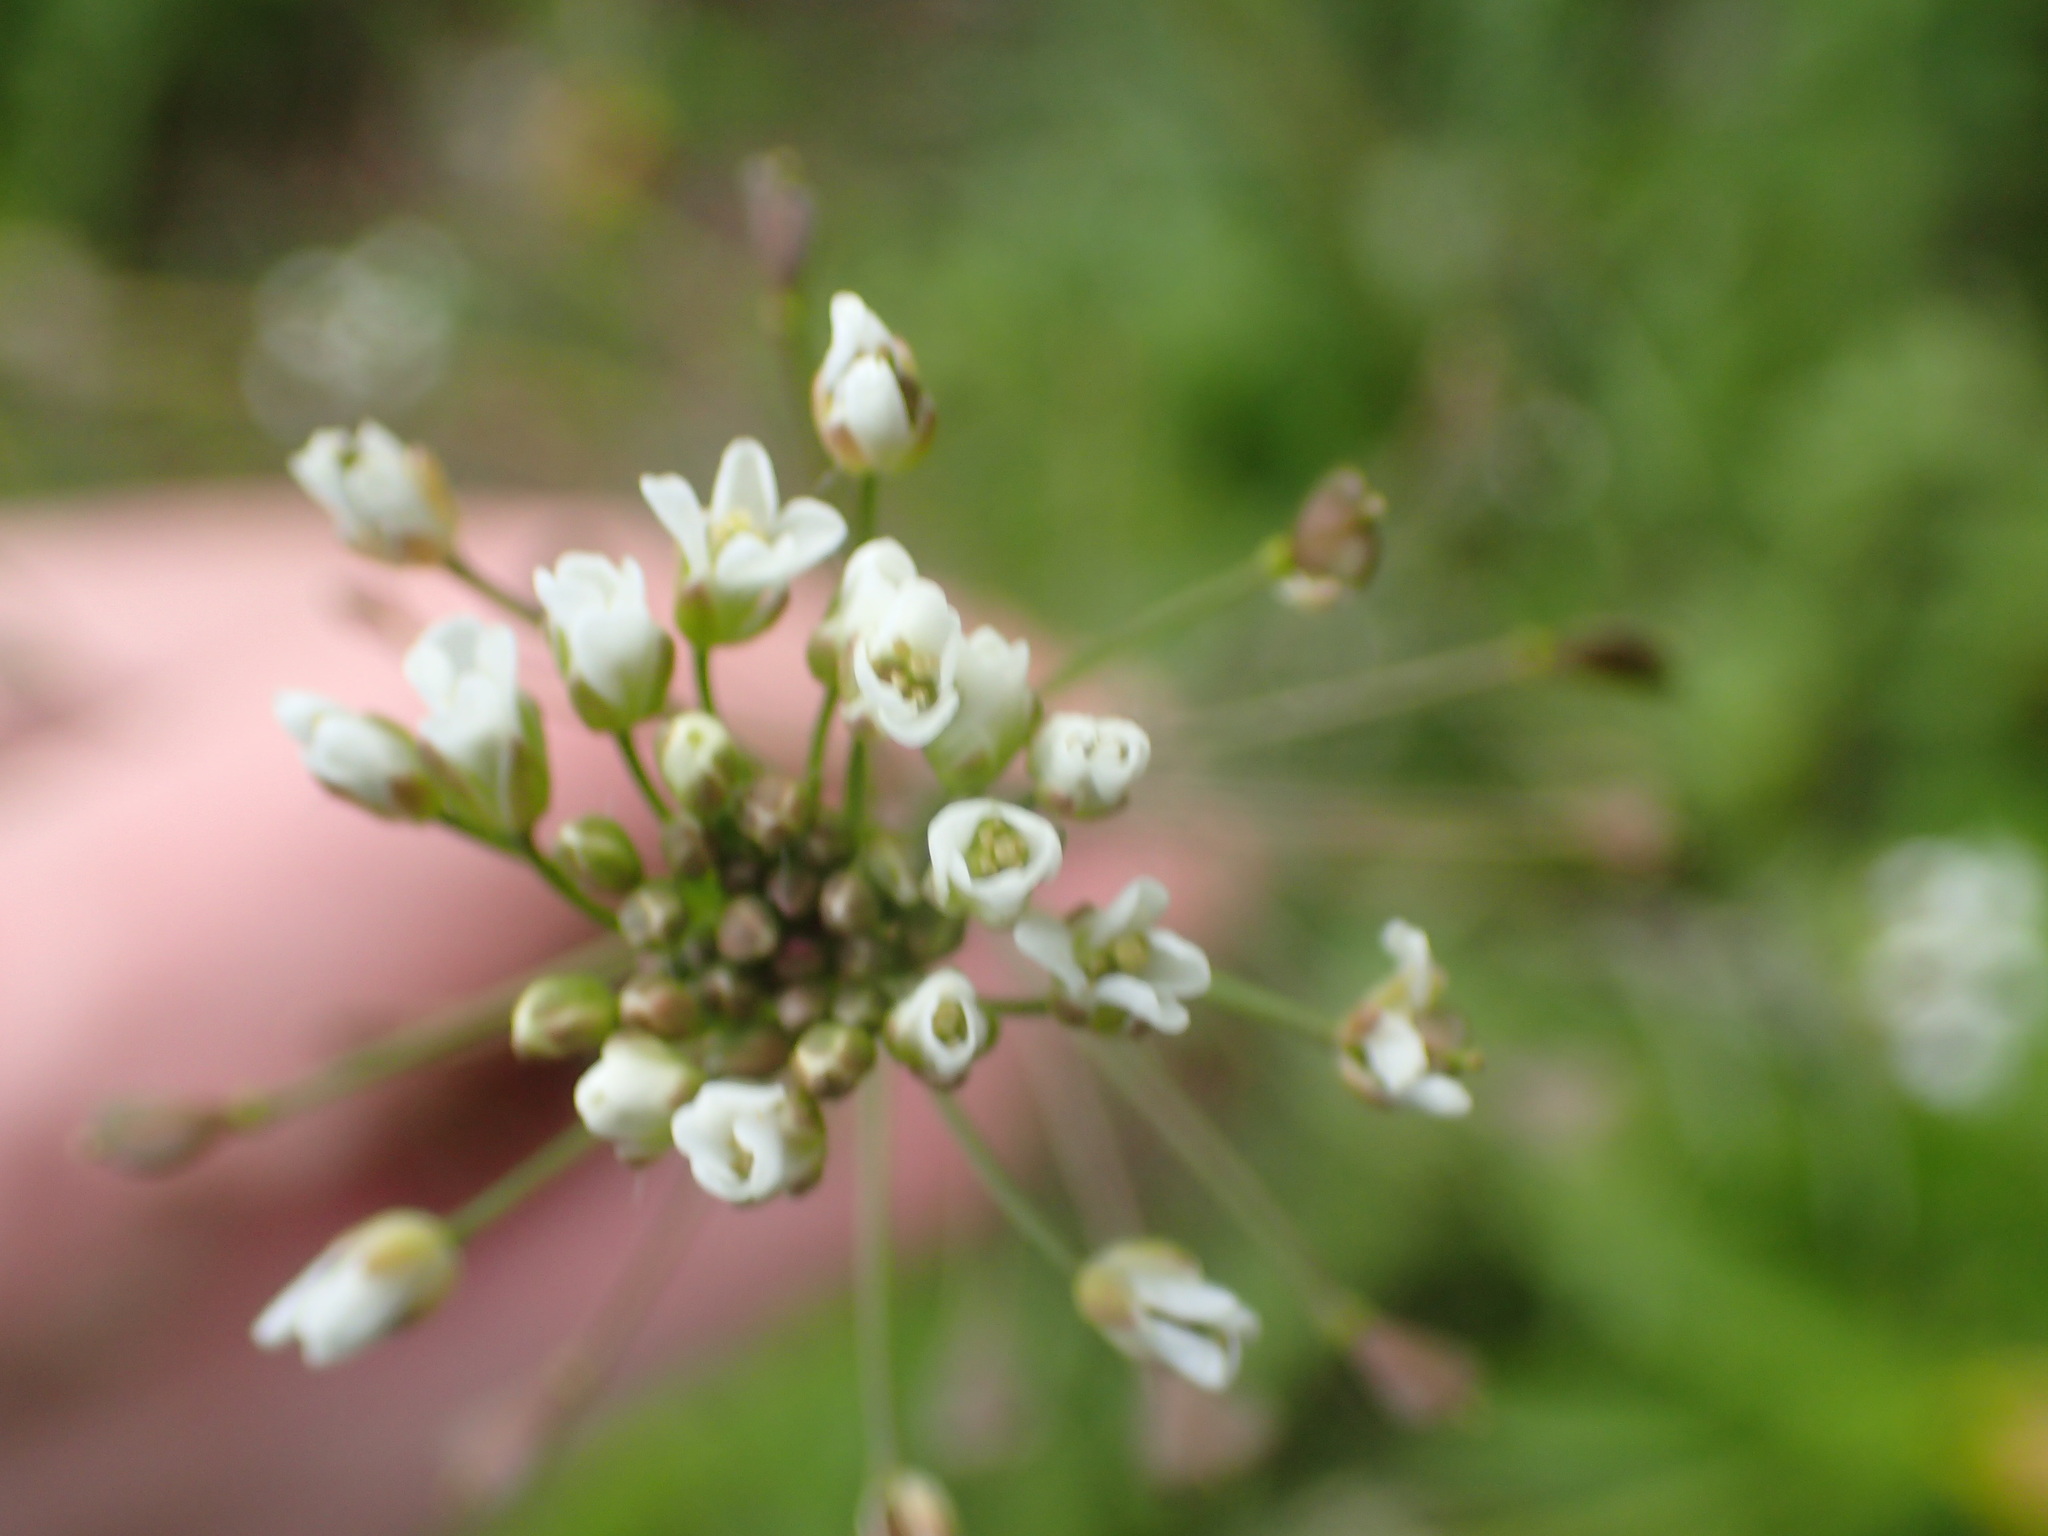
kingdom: Plantae
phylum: Tracheophyta
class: Magnoliopsida
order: Brassicales
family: Brassicaceae
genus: Capsella
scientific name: Capsella bursa-pastoris
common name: Shepherd's purse
